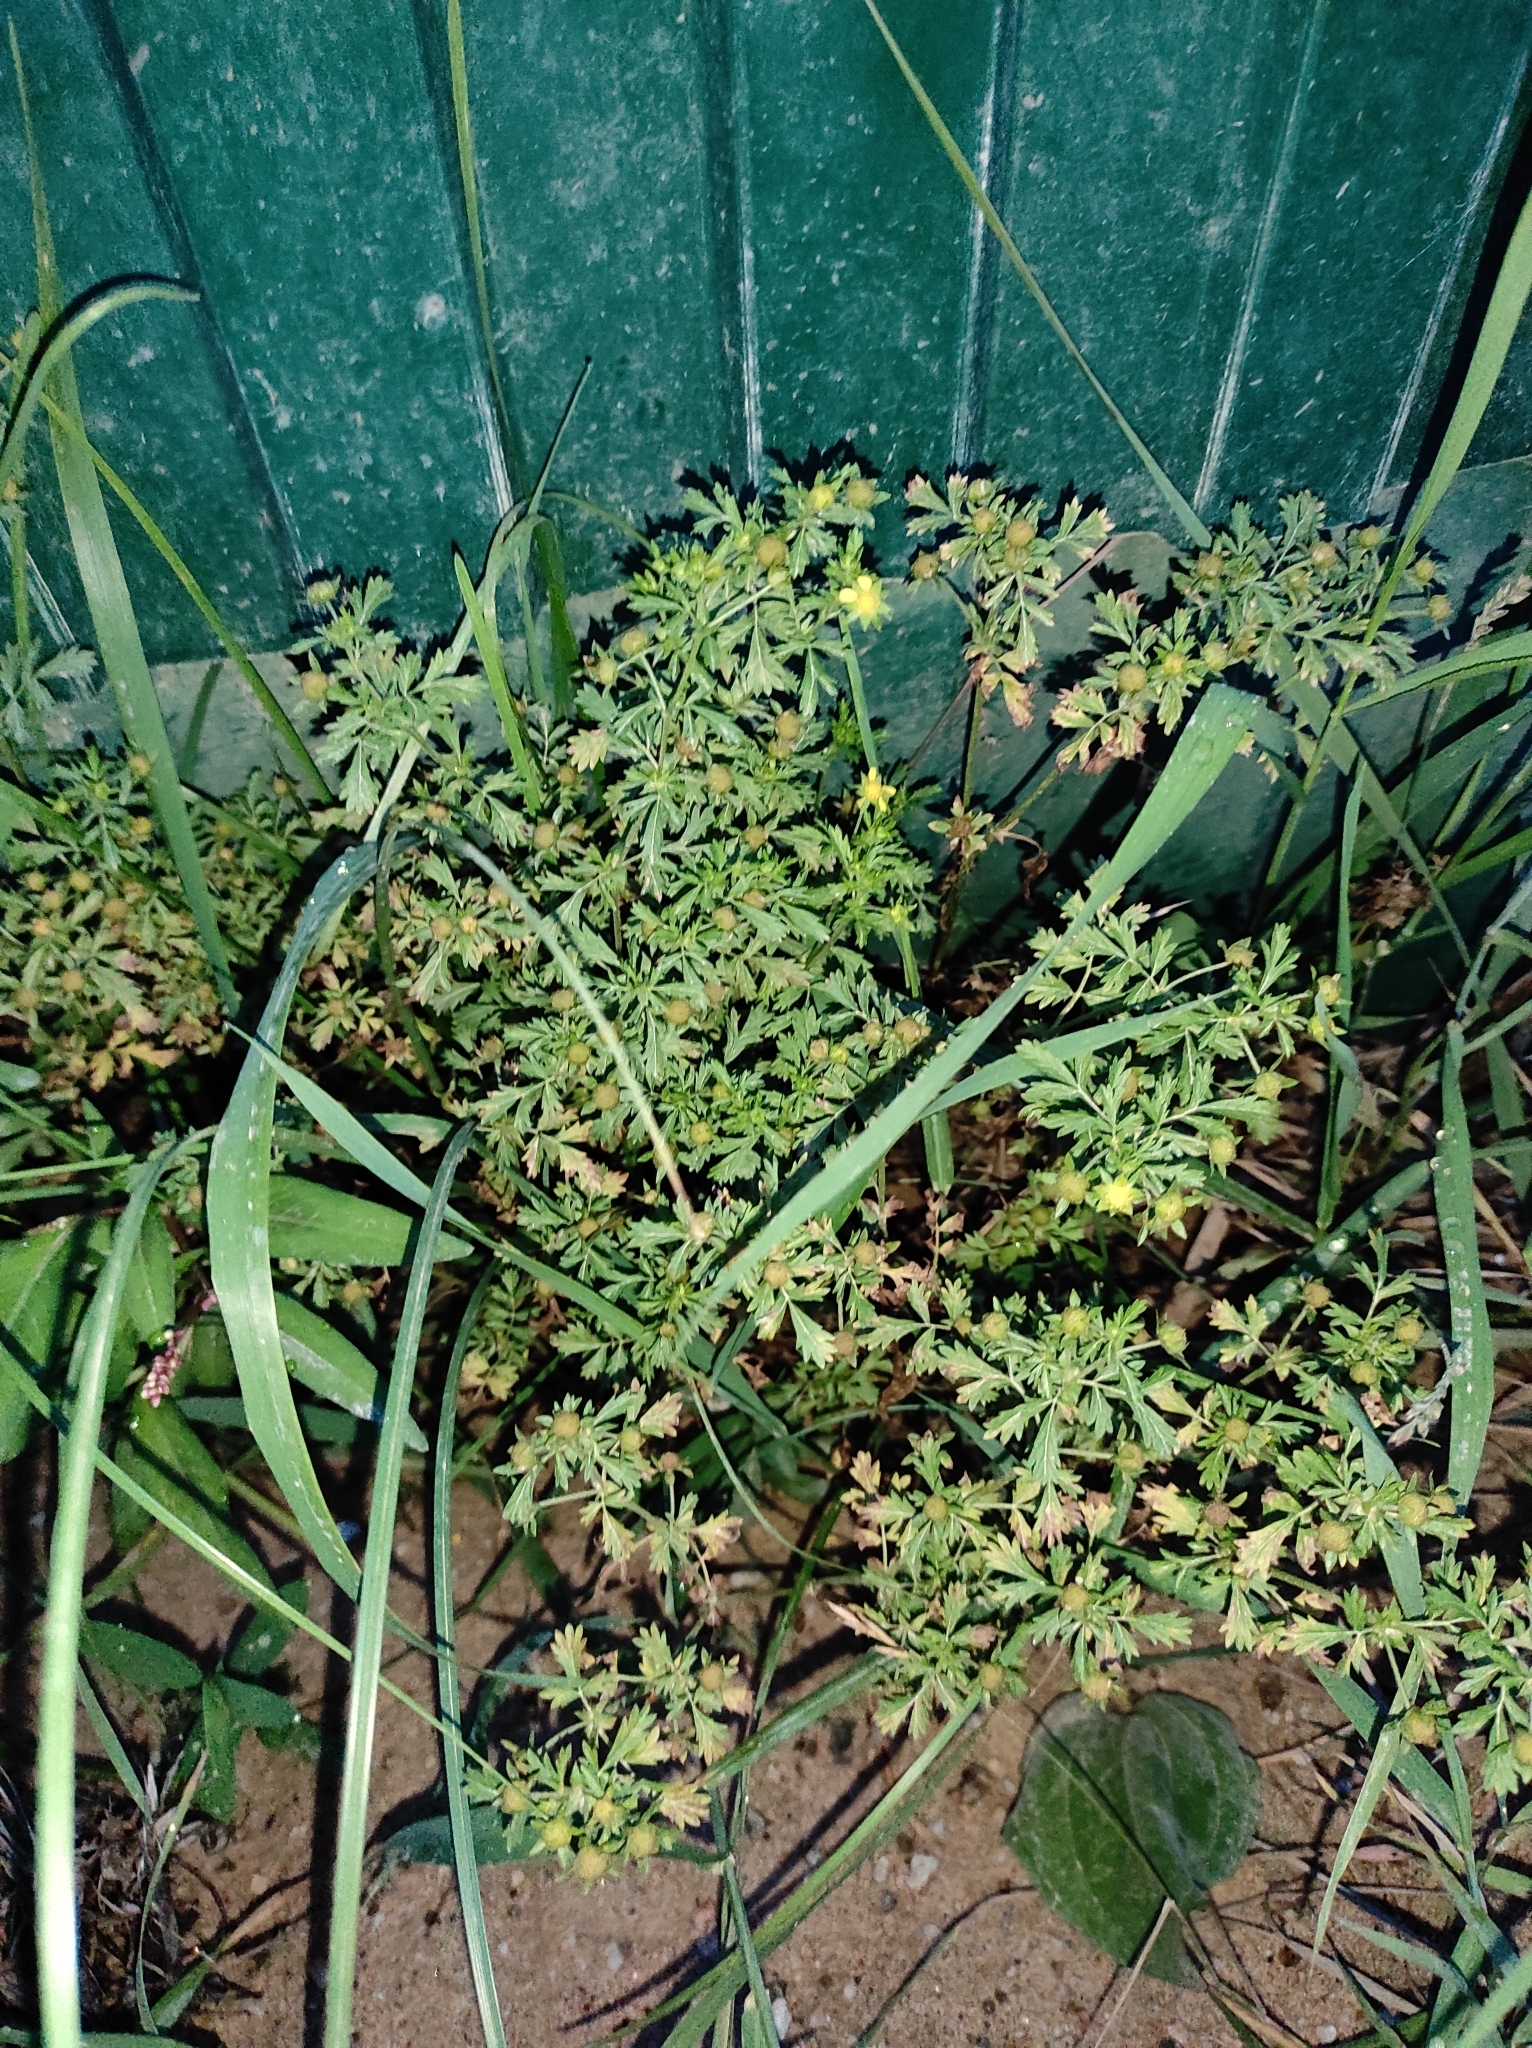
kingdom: Plantae
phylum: Tracheophyta
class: Magnoliopsida
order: Rosales
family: Rosaceae
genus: Potentilla
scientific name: Potentilla supina
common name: Prostrate cinquefoil
